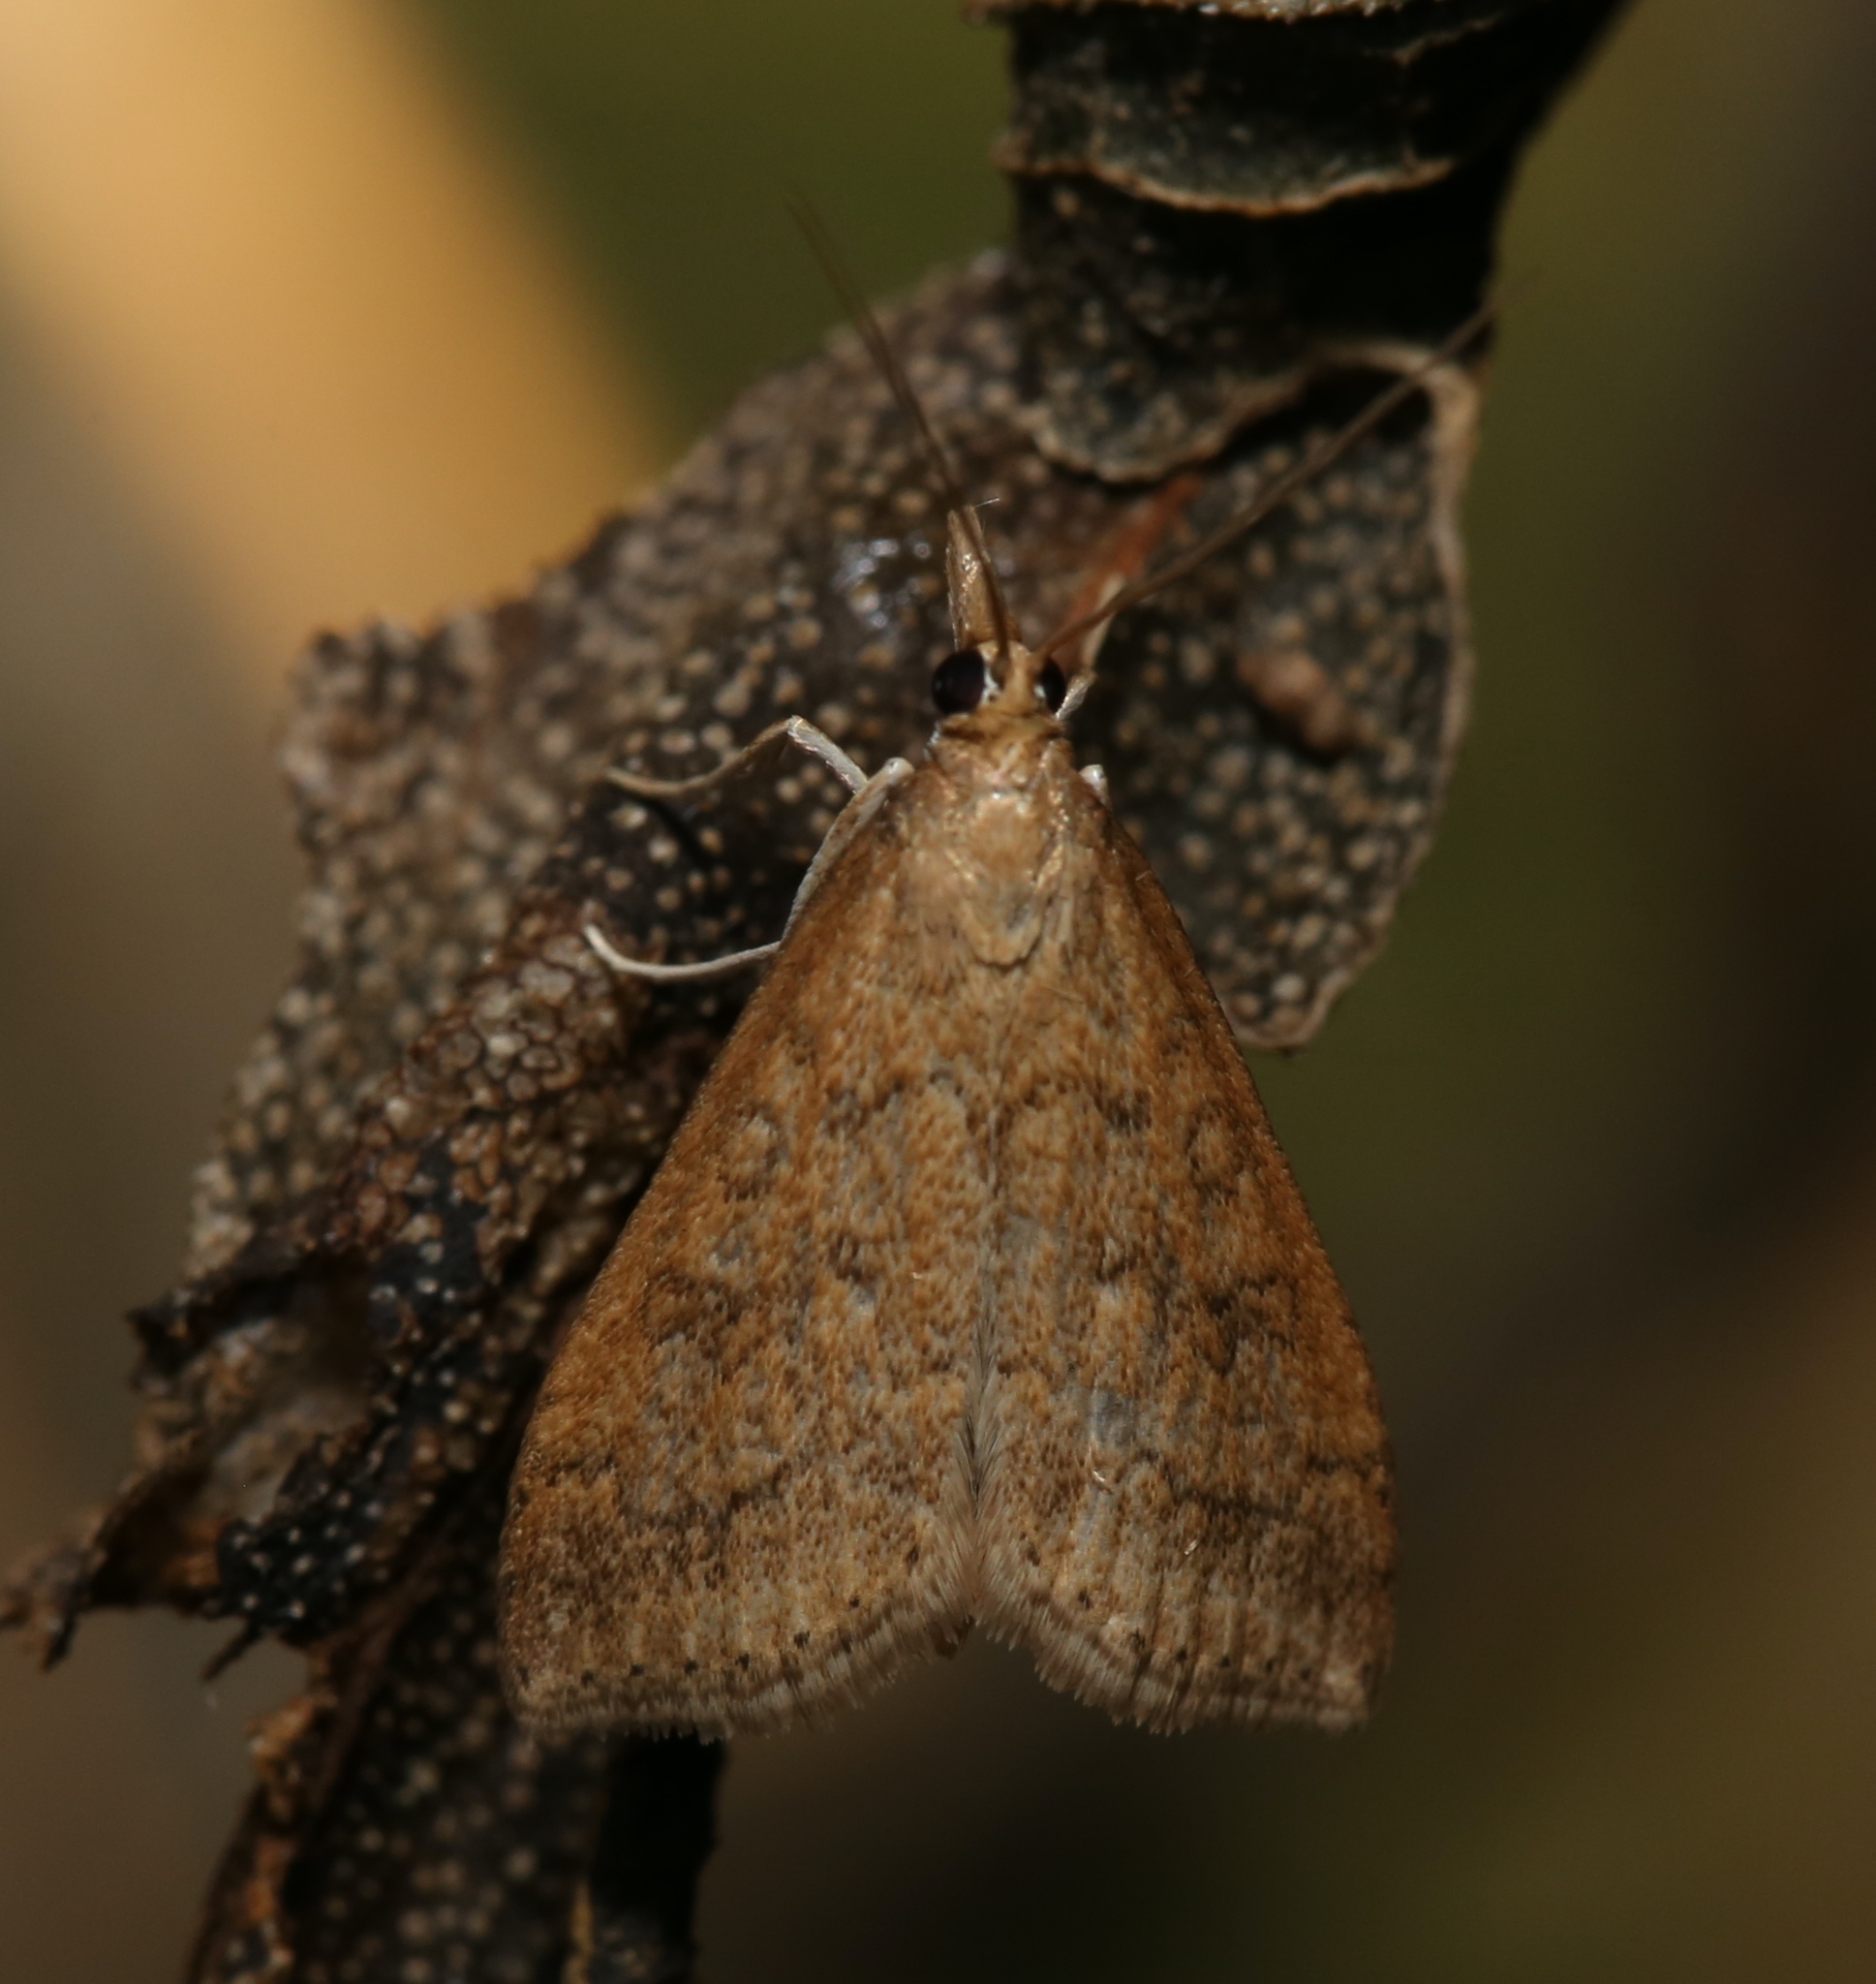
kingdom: Animalia
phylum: Arthropoda
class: Insecta
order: Lepidoptera
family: Crambidae
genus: Udea
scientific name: Udea rubigalis
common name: Celery leaftier moth
